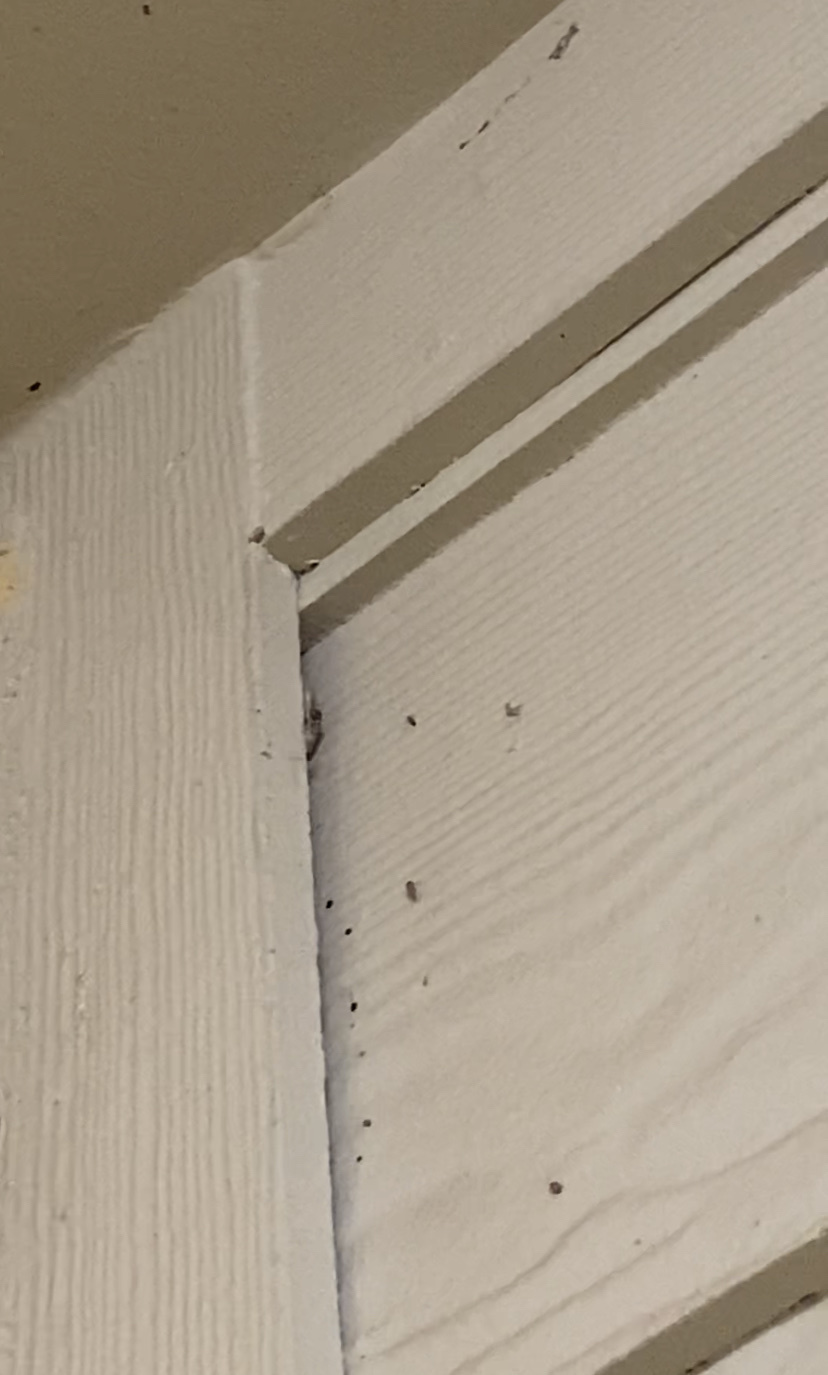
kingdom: Animalia
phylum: Chordata
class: Squamata
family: Gekkonidae
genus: Hemidactylus
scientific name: Hemidactylus turcicus
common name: Turkish gecko
